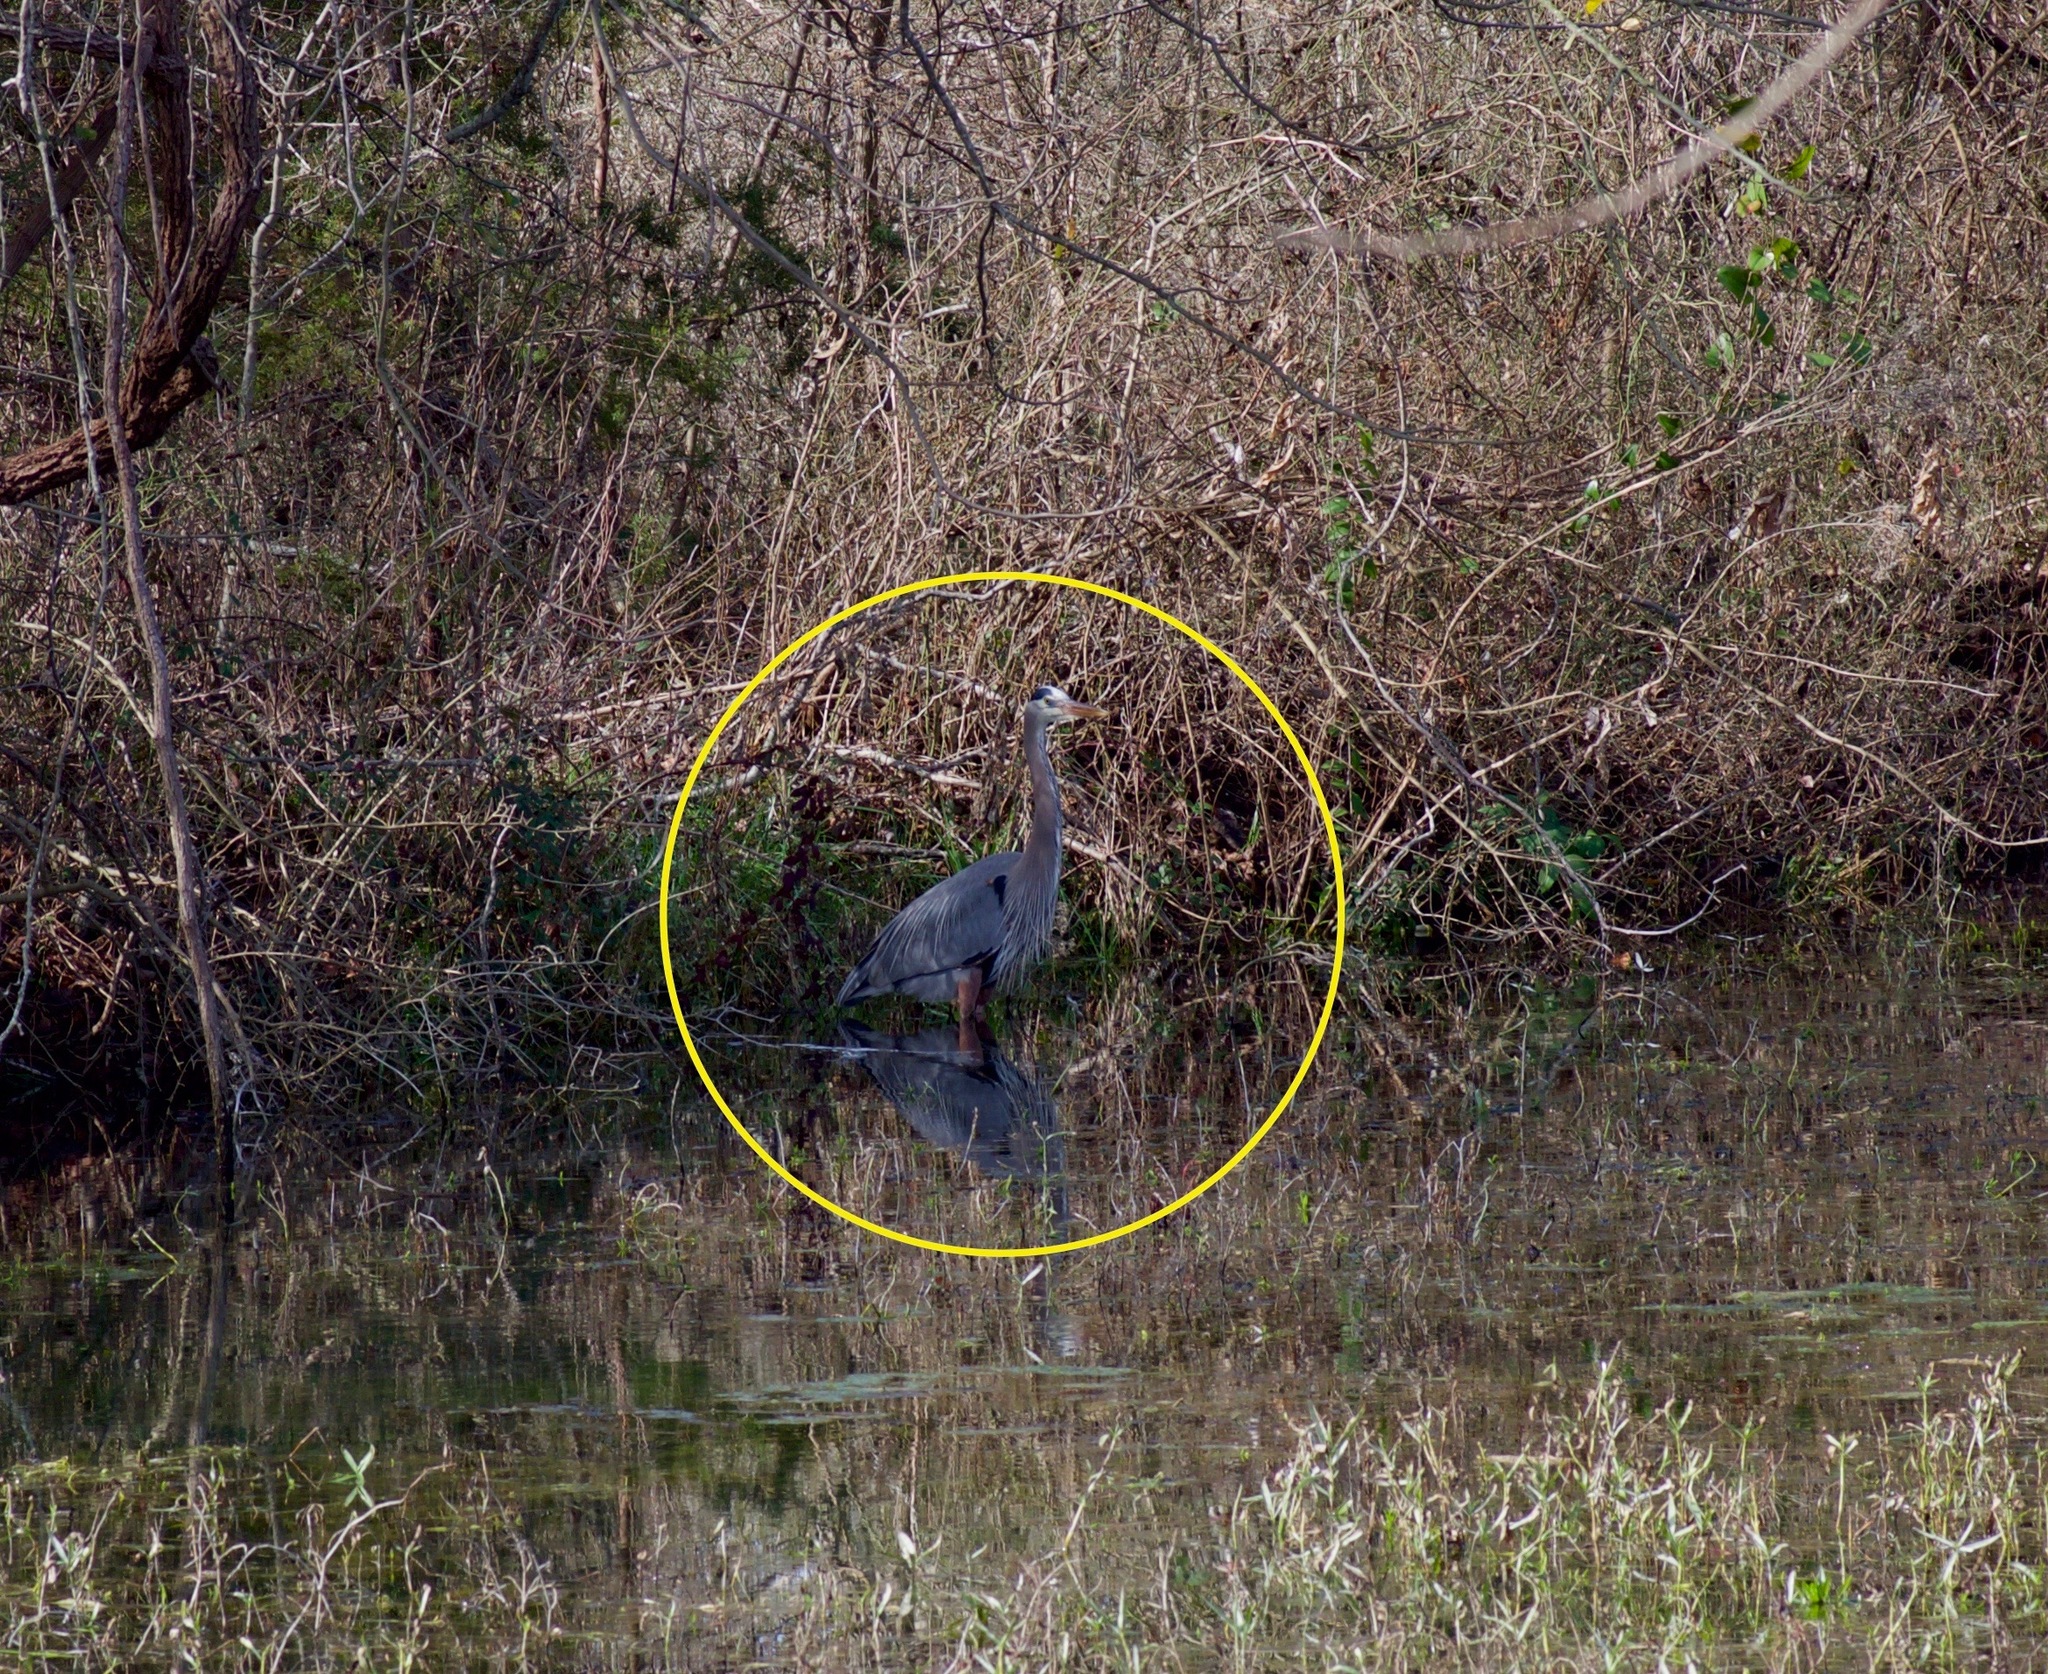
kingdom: Animalia
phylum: Chordata
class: Aves
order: Pelecaniformes
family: Ardeidae
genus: Ardea
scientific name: Ardea herodias
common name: Great blue heron
